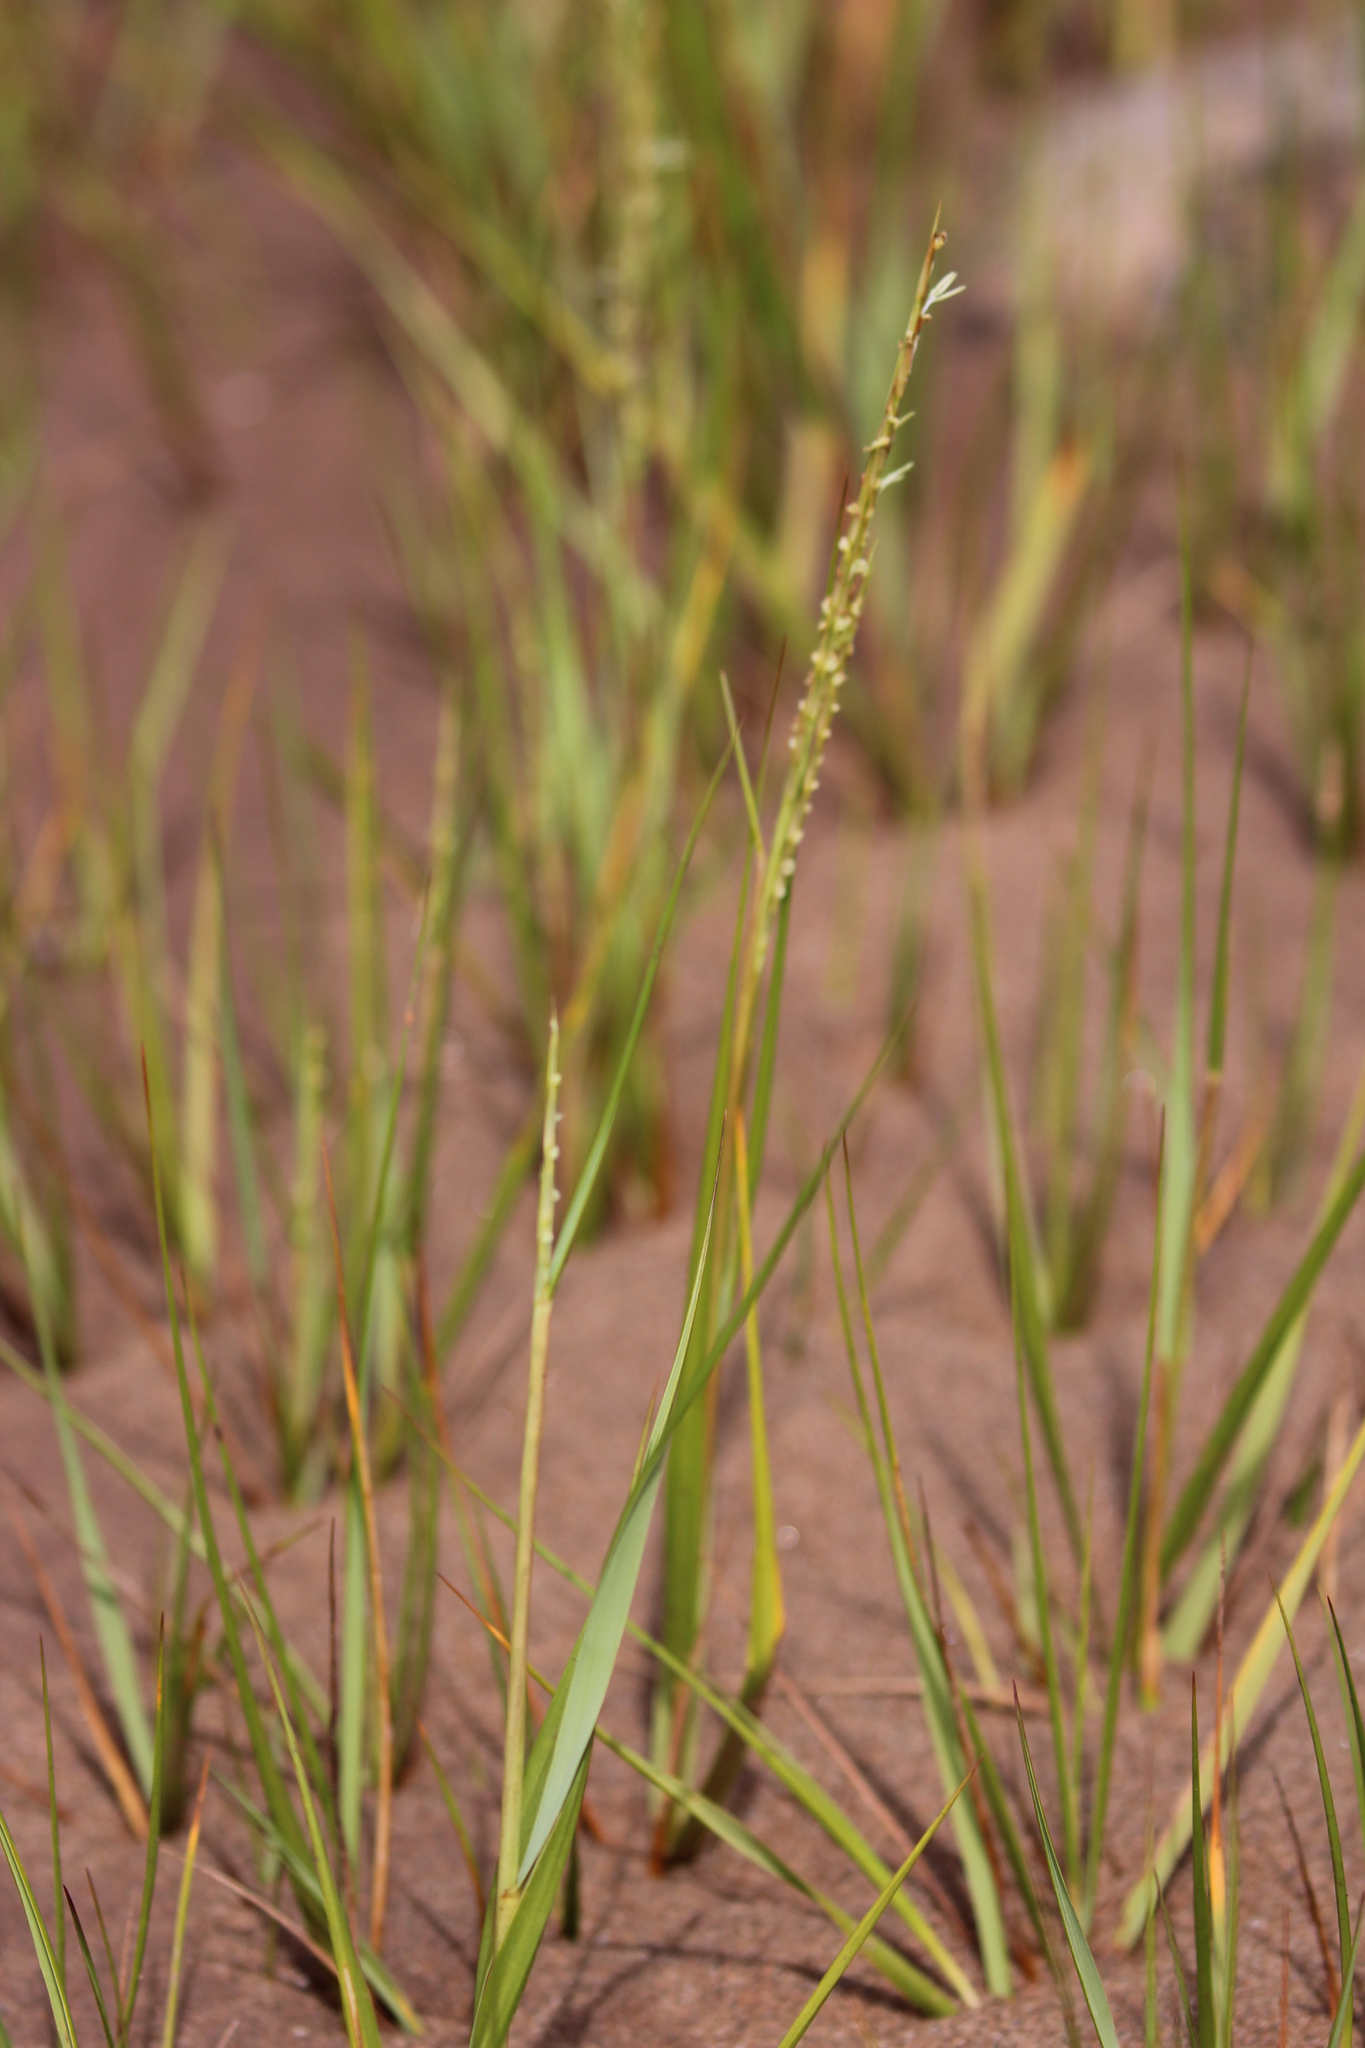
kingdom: Plantae
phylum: Tracheophyta
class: Liliopsida
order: Poales
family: Poaceae
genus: Sporobolus
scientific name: Sporobolus alterniflorus
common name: Atlantic cordgrass
